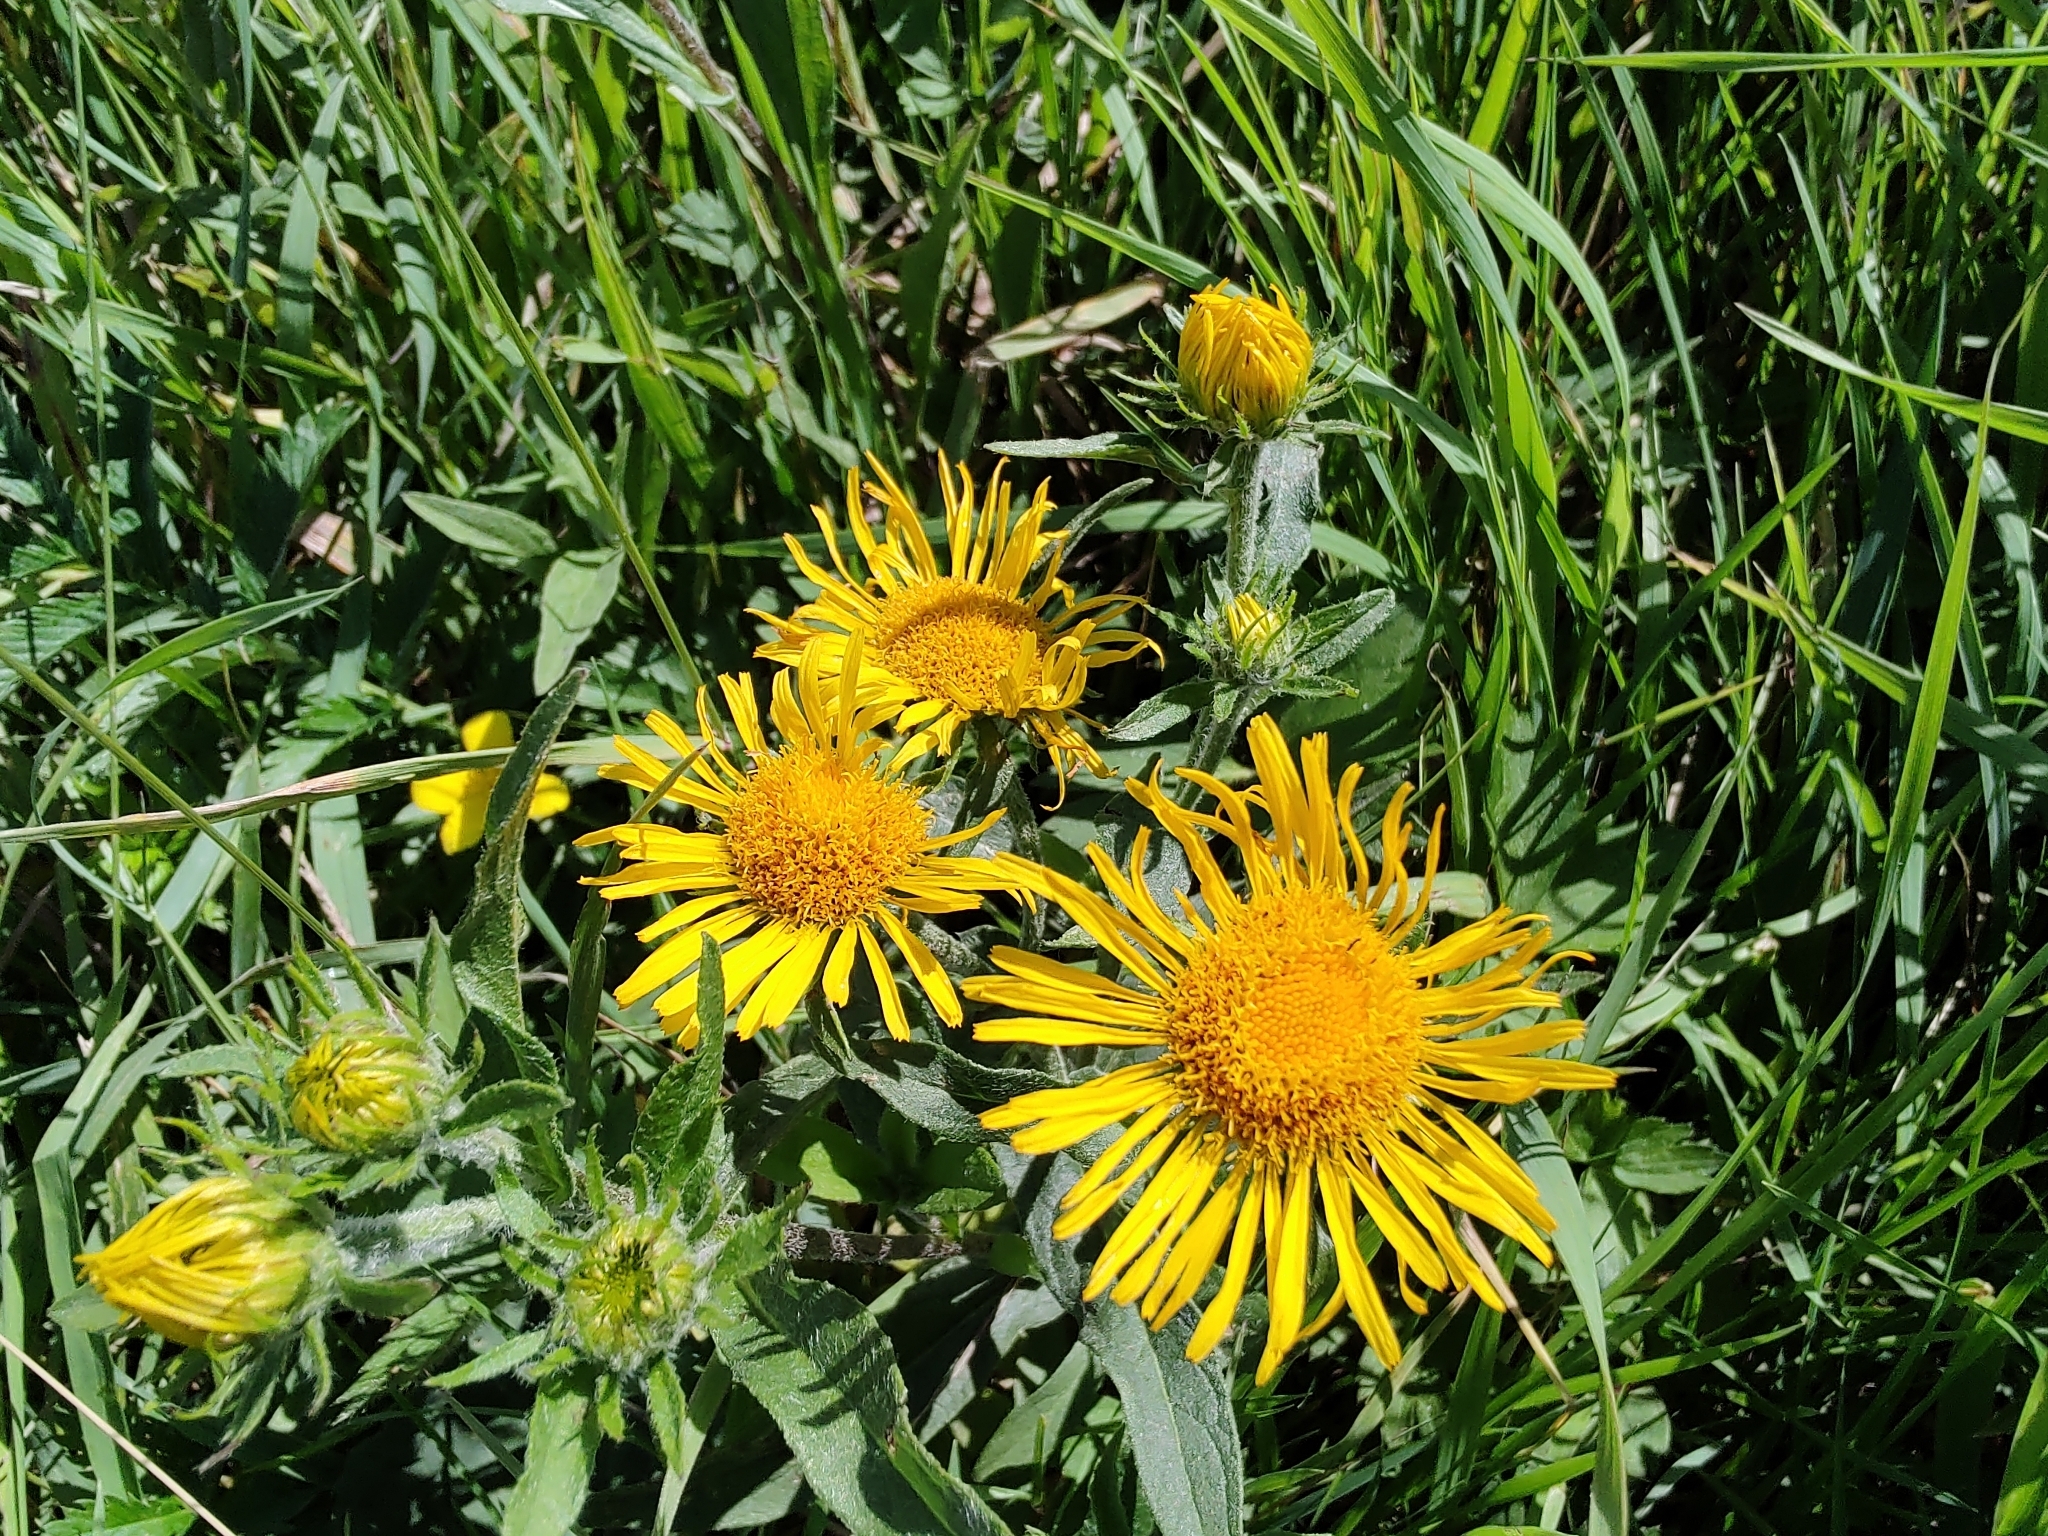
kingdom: Plantae
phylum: Tracheophyta
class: Magnoliopsida
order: Asterales
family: Asteraceae
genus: Pentanema
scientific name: Pentanema britannicum
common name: British elecampane
